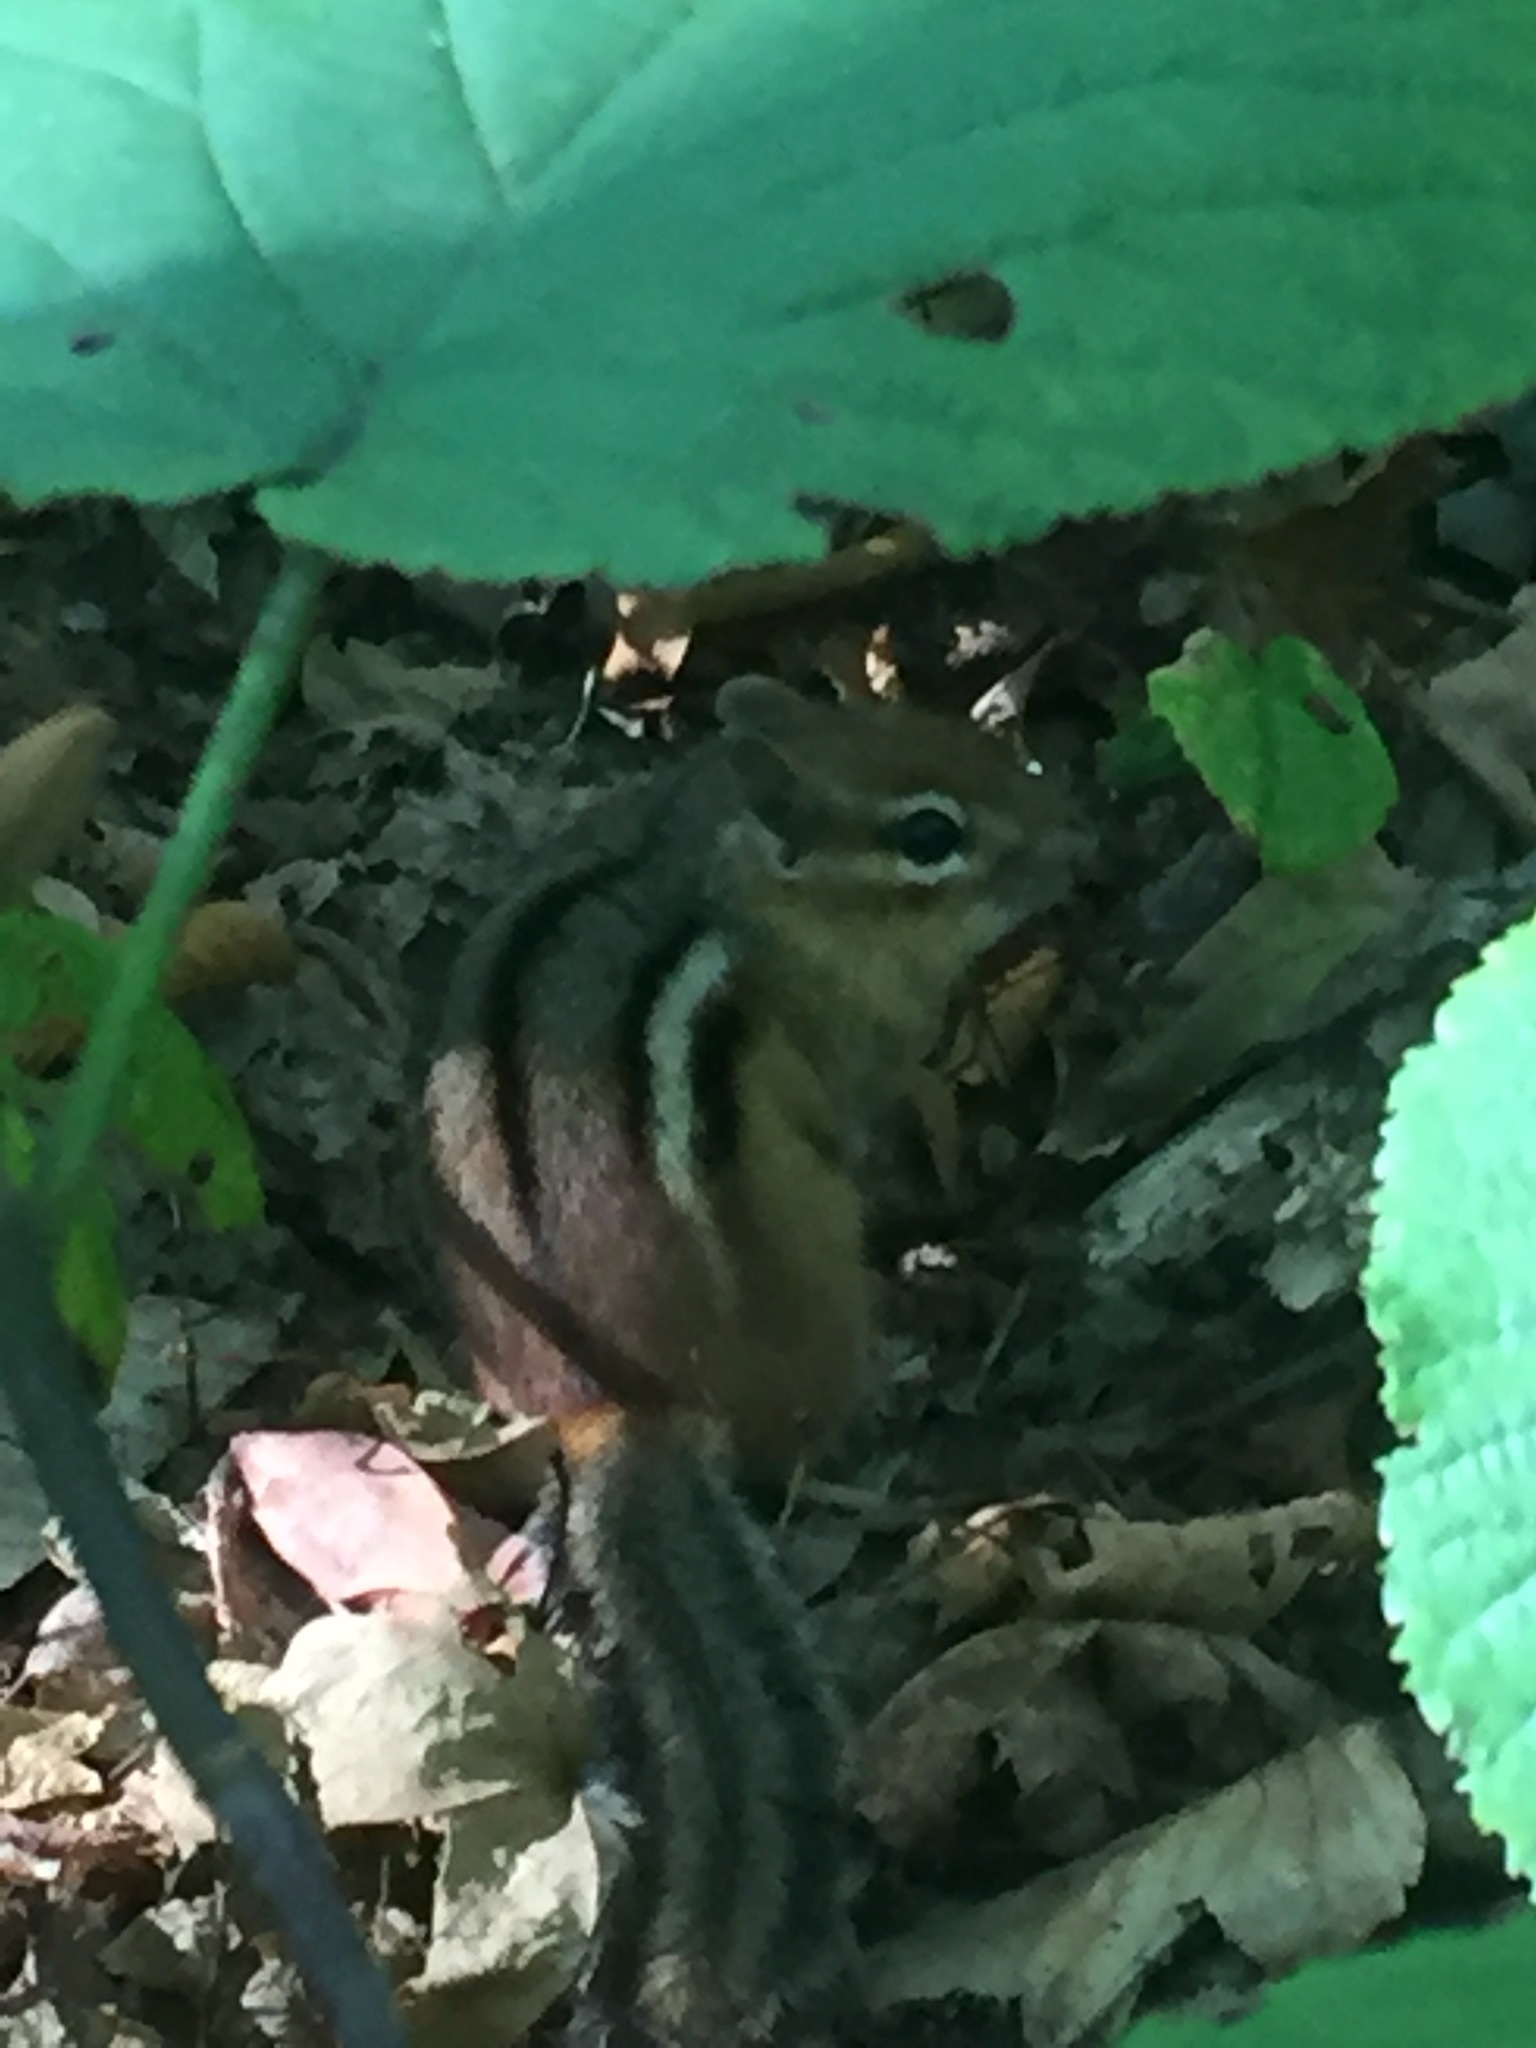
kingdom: Animalia
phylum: Chordata
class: Mammalia
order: Rodentia
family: Sciuridae
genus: Tamias
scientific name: Tamias striatus
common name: Eastern chipmunk
